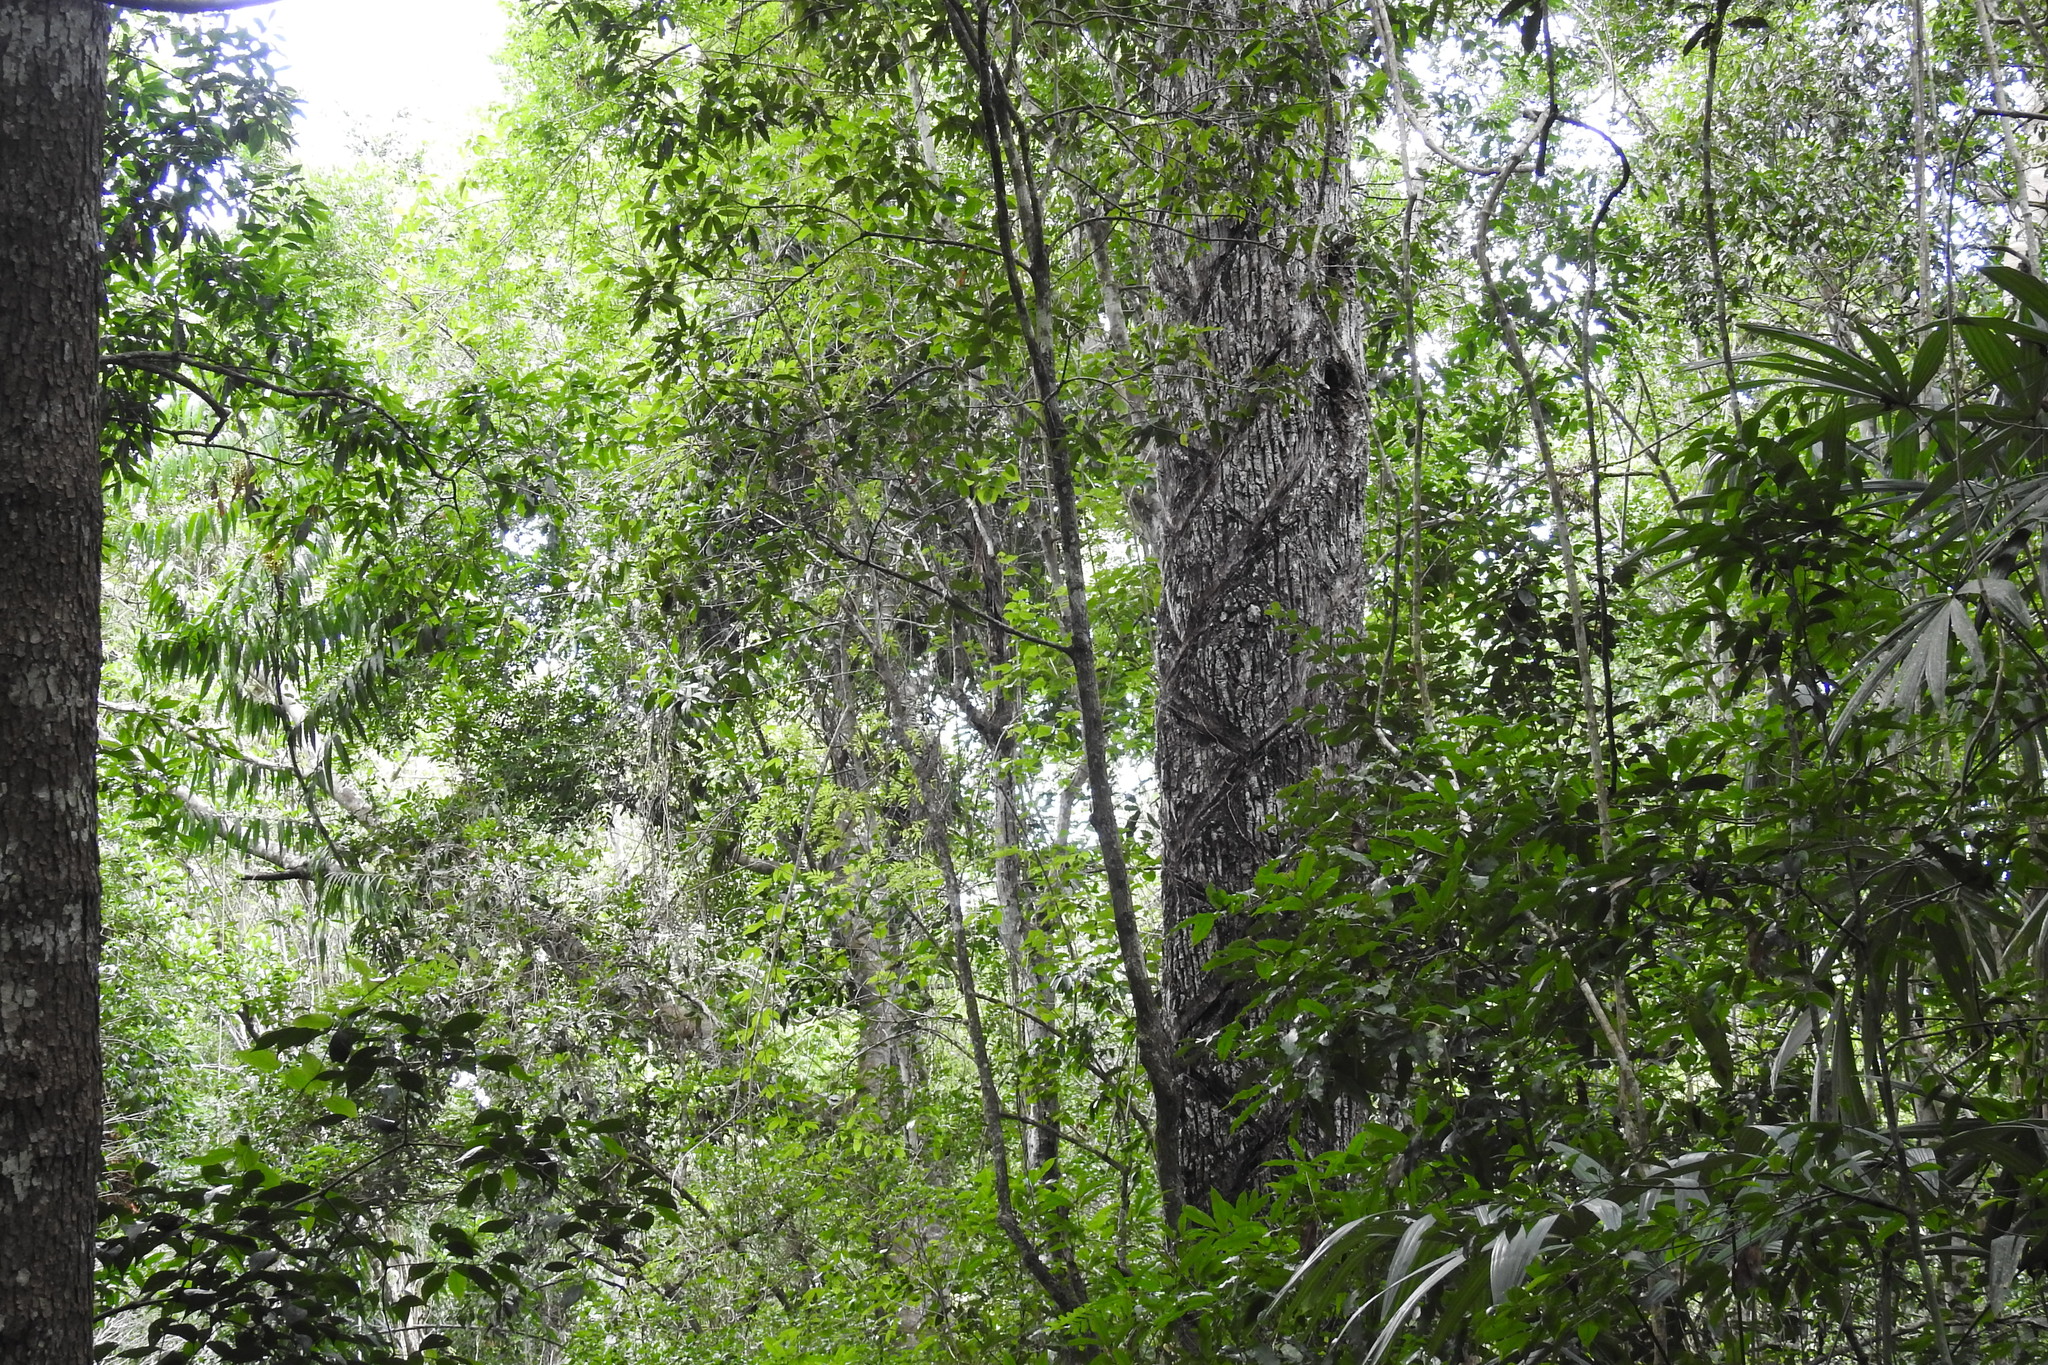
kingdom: Plantae
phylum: Tracheophyta
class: Magnoliopsida
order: Ericales
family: Sapotaceae
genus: Manilkara
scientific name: Manilkara zapota
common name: Sapodilla
